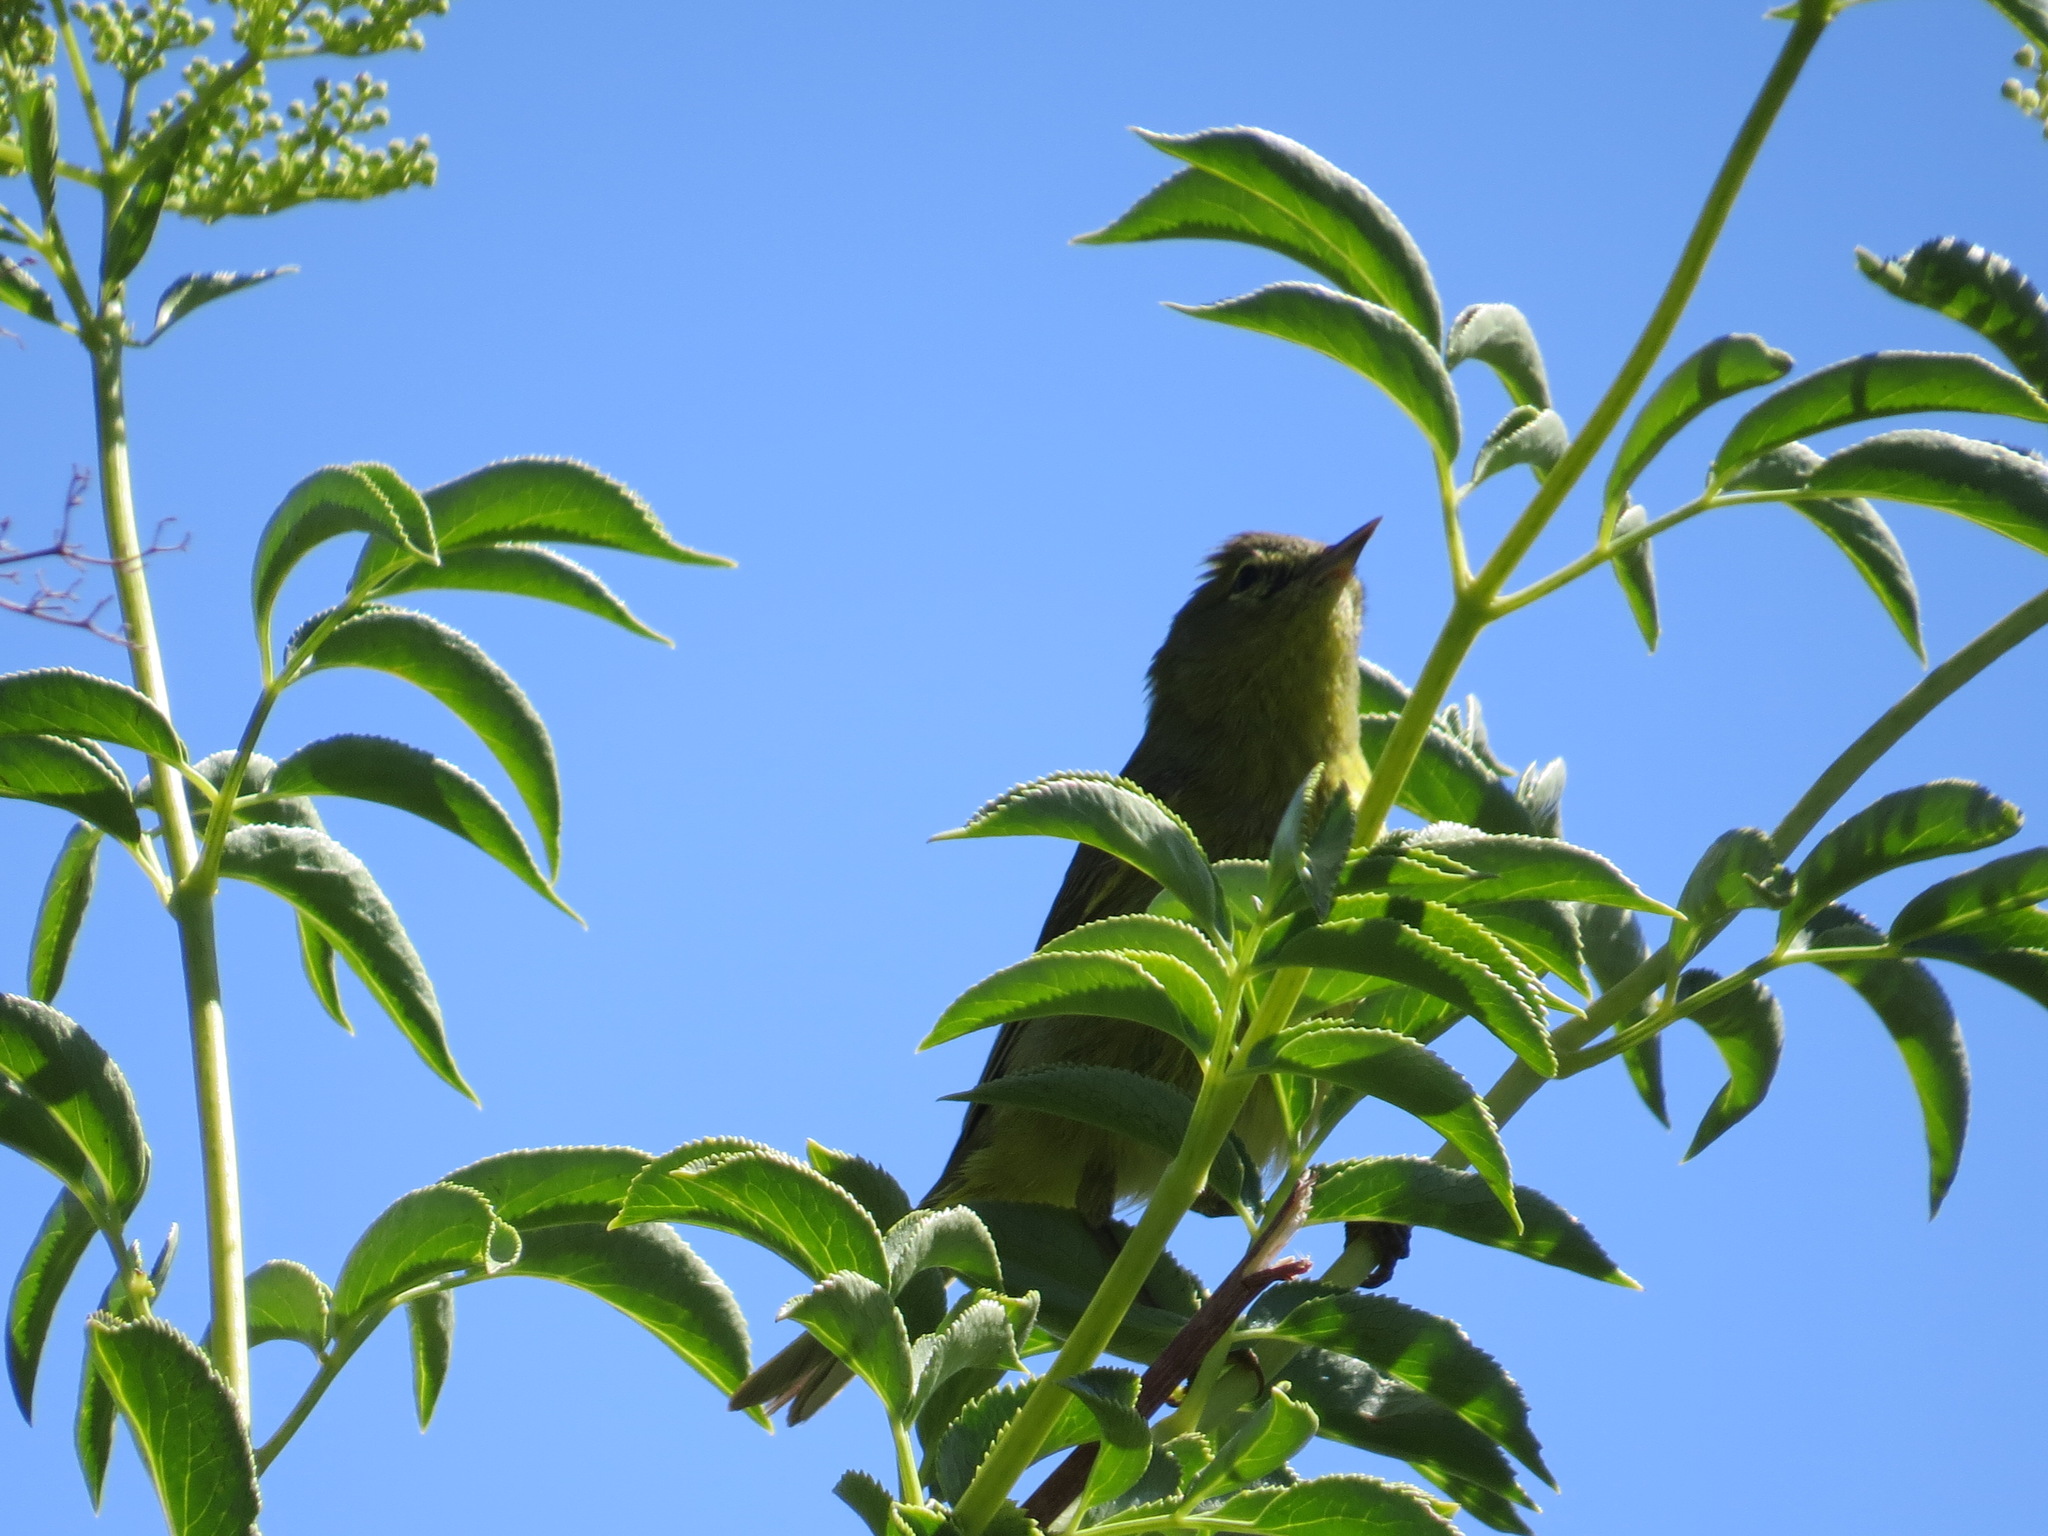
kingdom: Animalia
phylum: Chordata
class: Aves
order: Passeriformes
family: Parulidae
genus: Leiothlypis
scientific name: Leiothlypis celata
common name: Orange-crowned warbler
